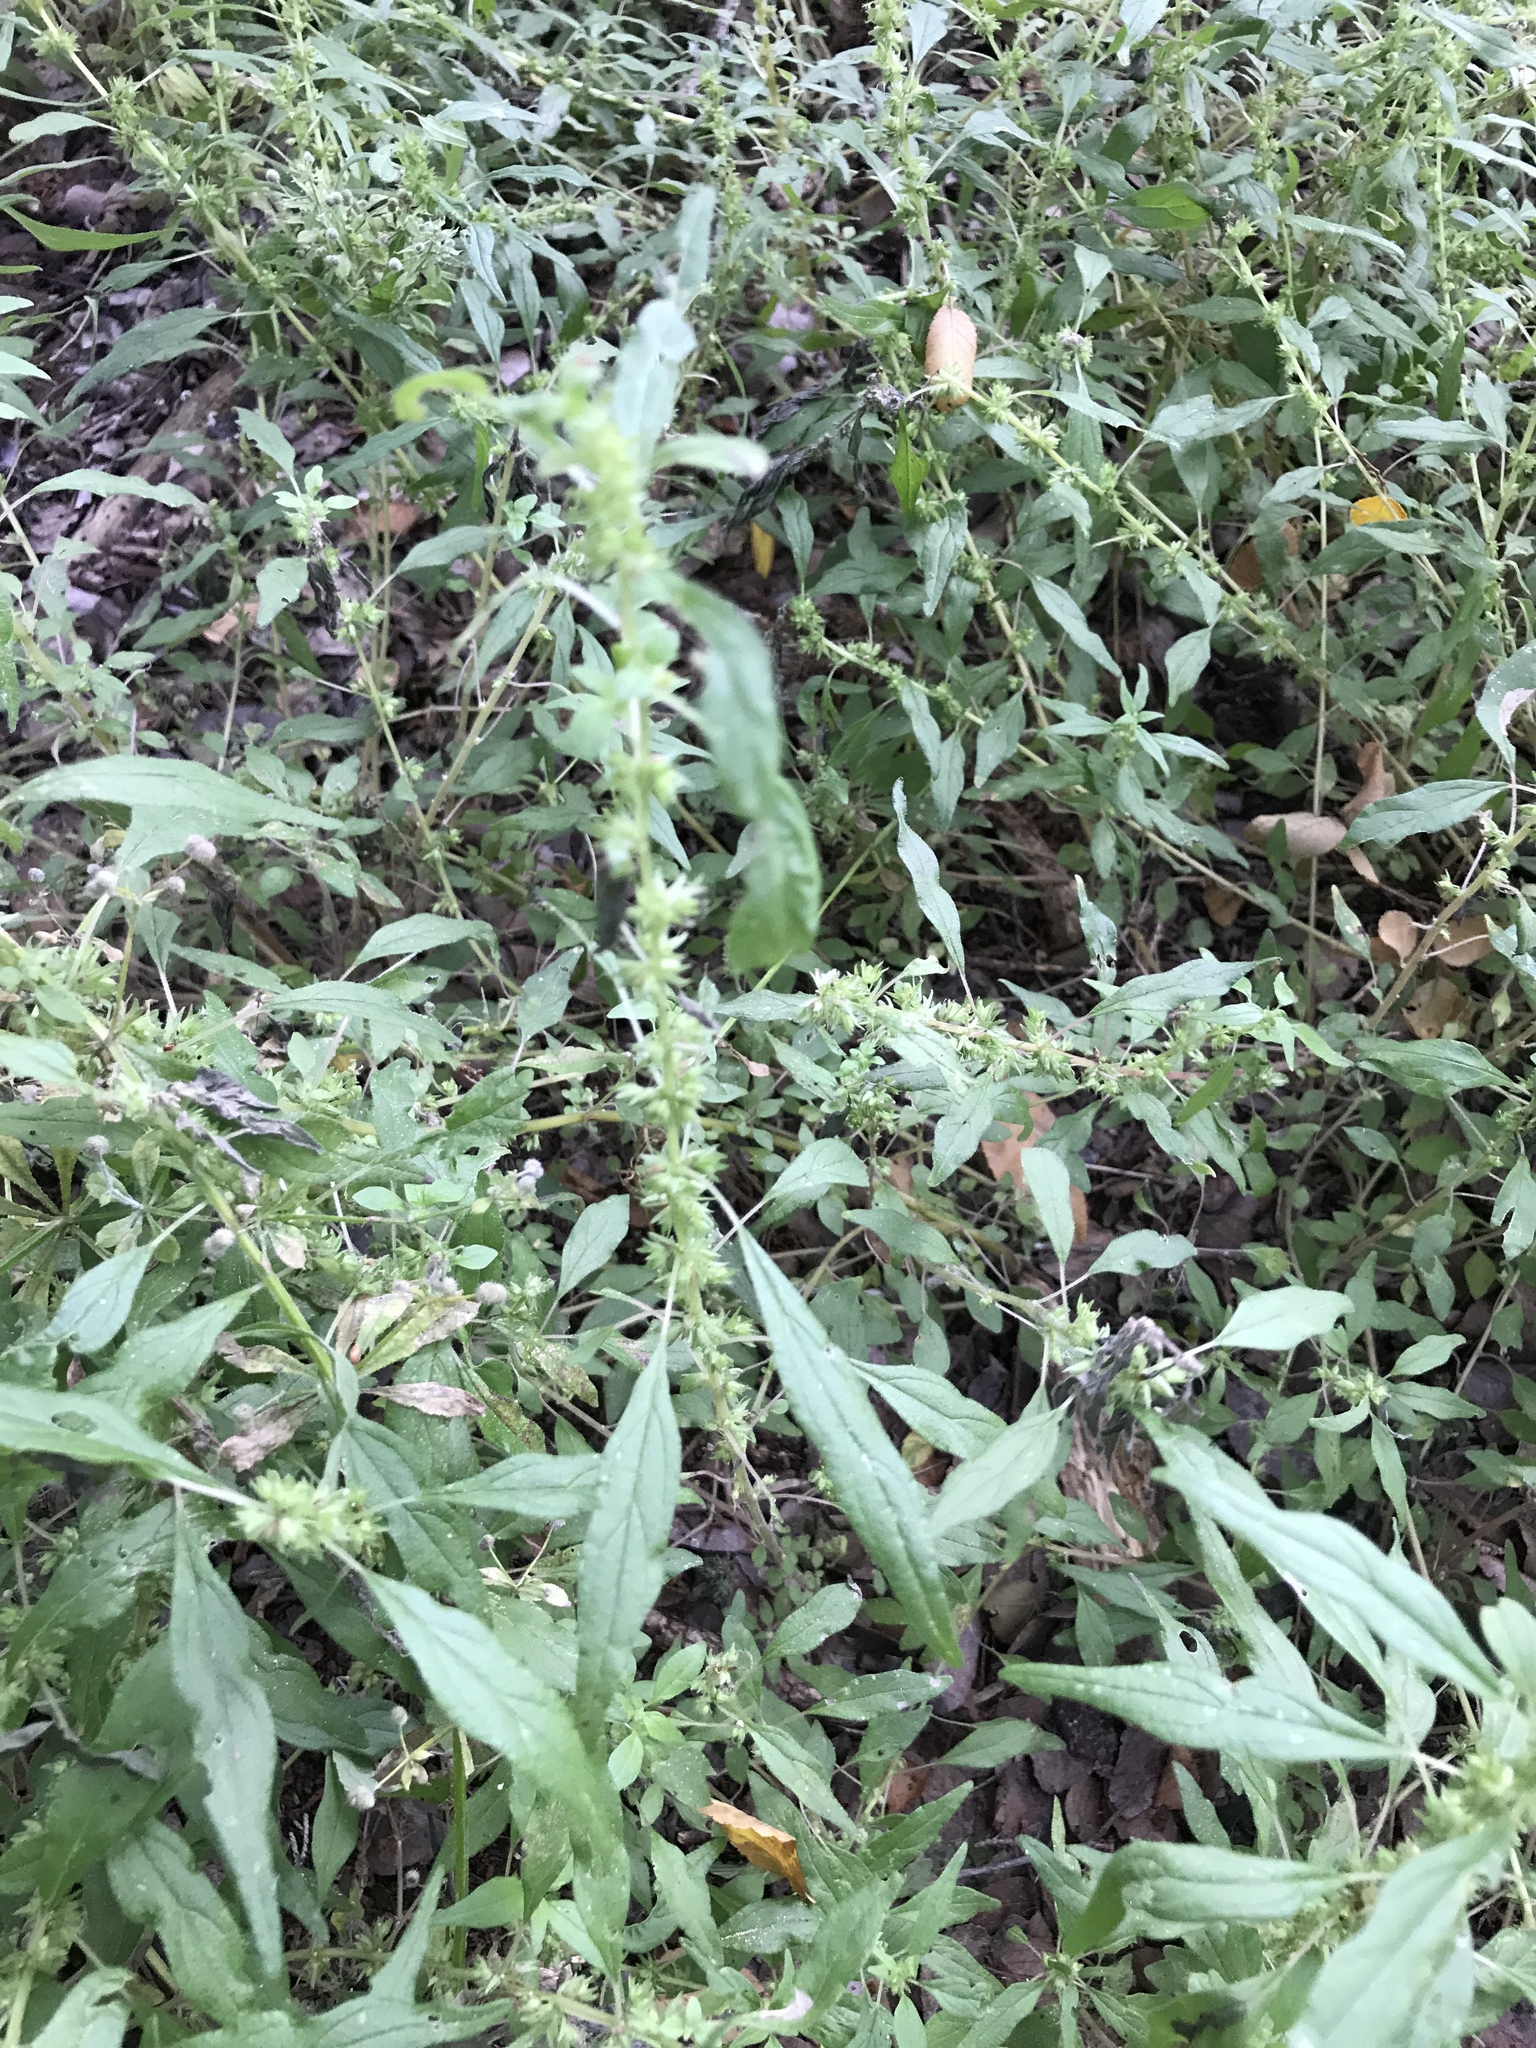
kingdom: Plantae
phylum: Tracheophyta
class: Magnoliopsida
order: Rosales
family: Urticaceae
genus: Parietaria
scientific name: Parietaria pensylvanica
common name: Pennsylvania pellitory
